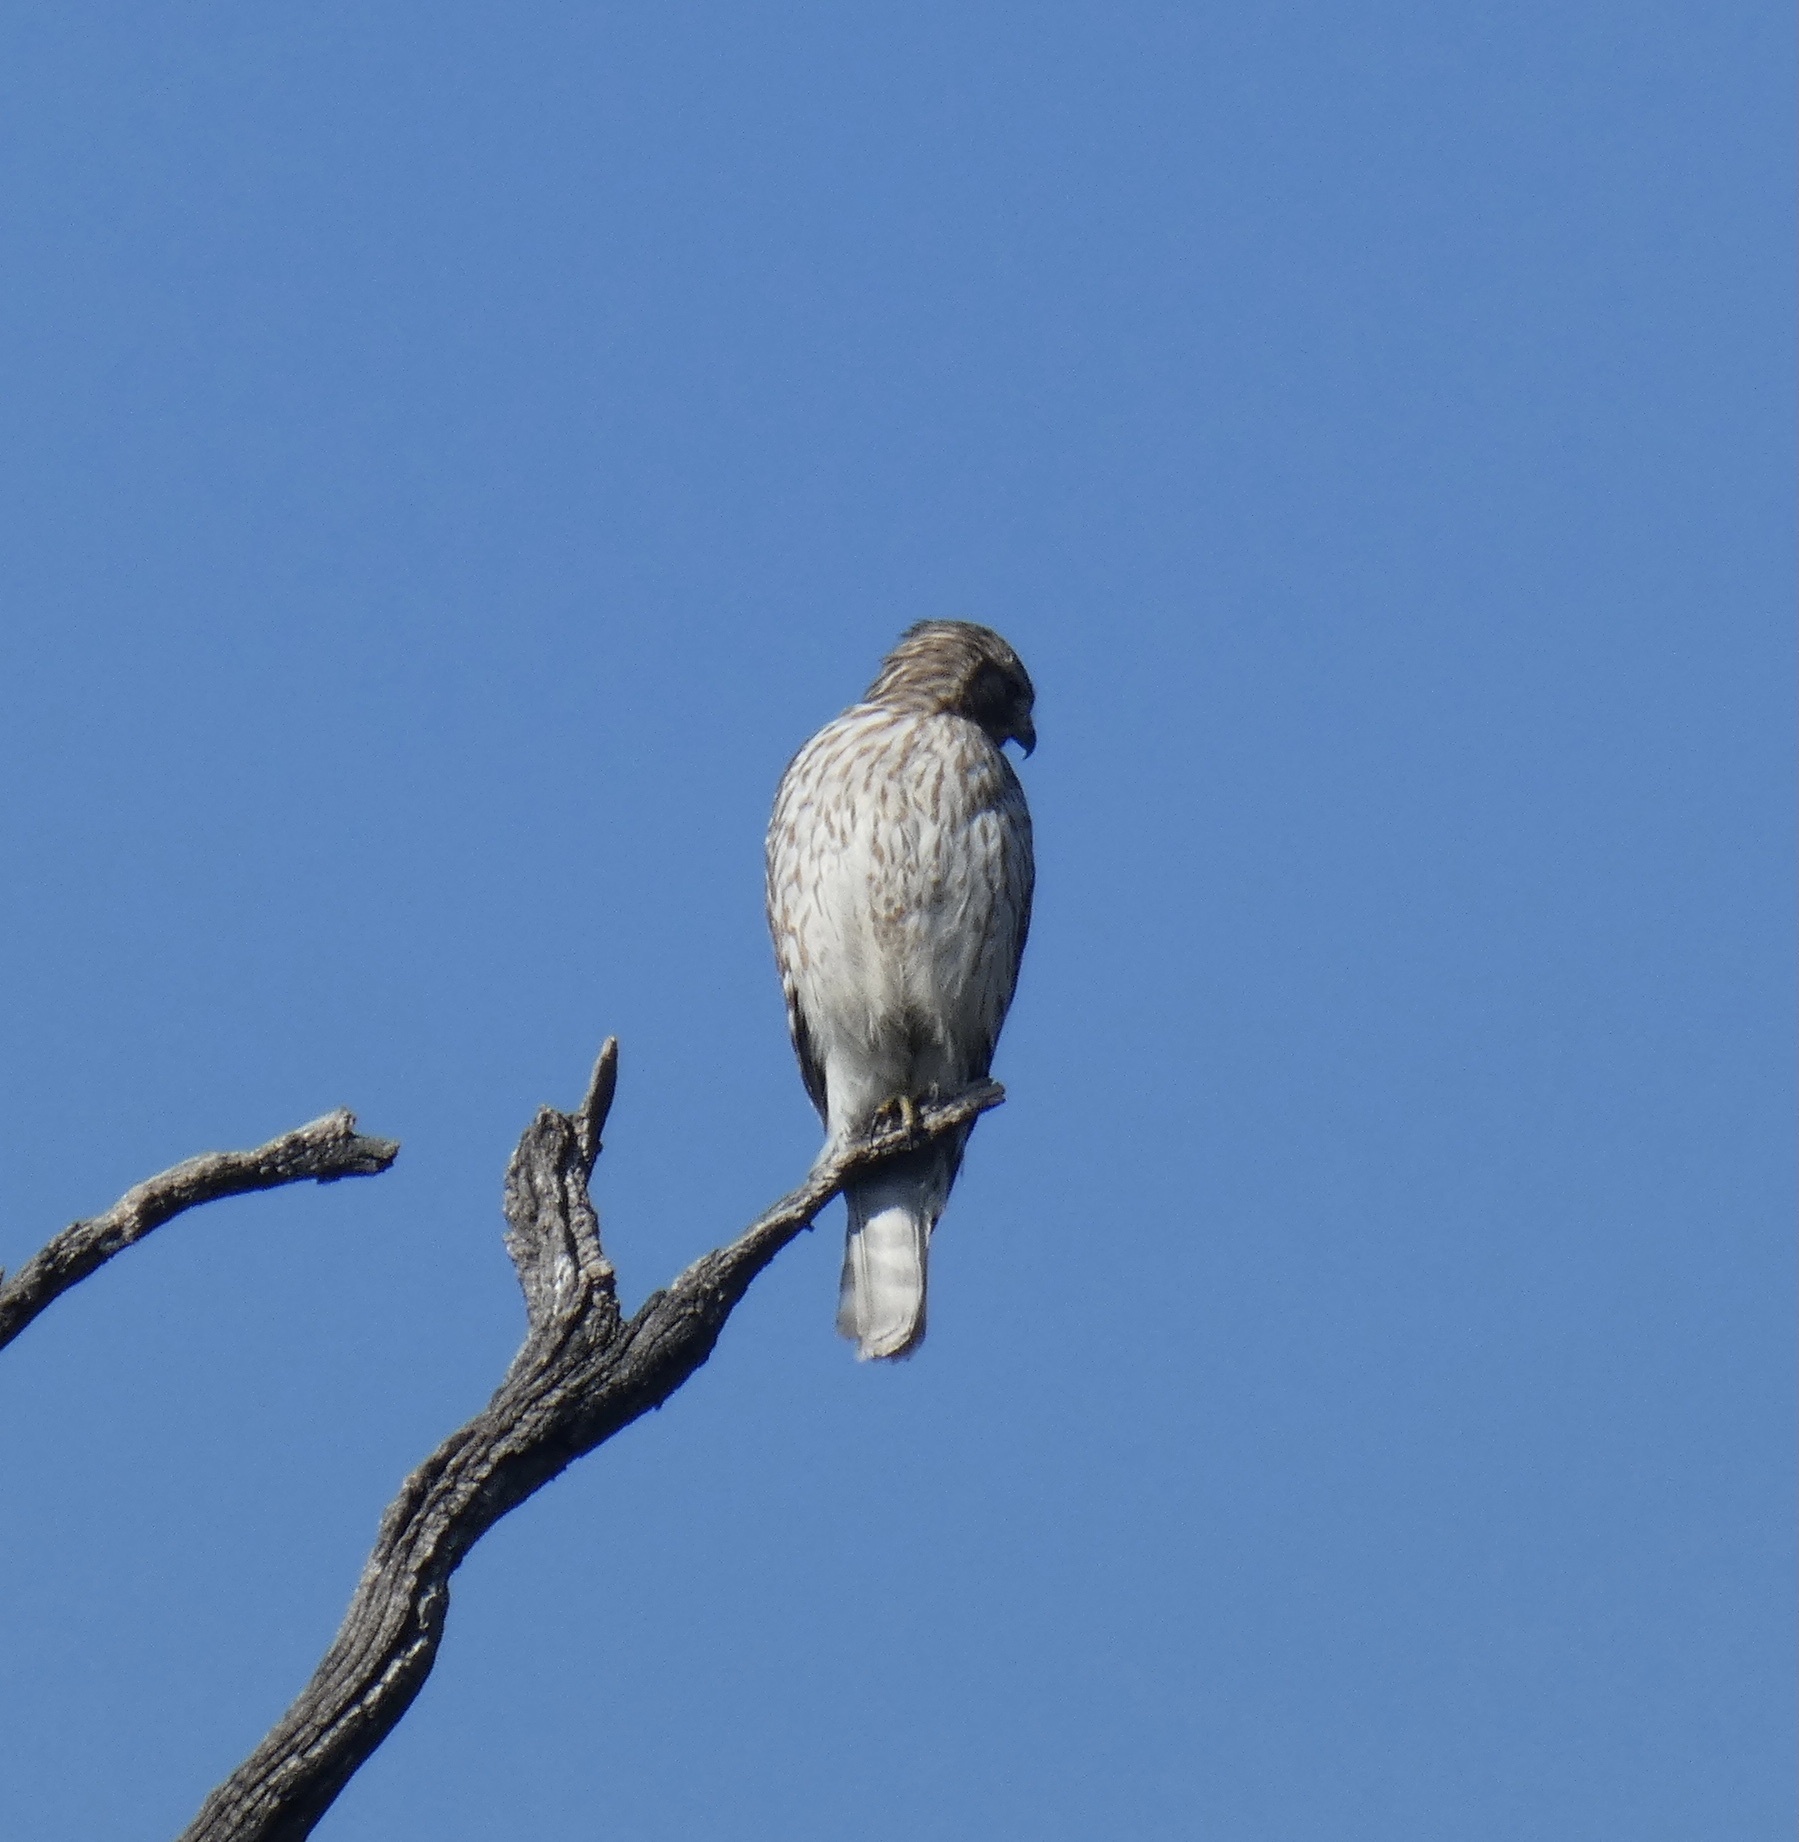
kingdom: Animalia
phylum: Chordata
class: Aves
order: Accipitriformes
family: Accipitridae
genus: Buteo
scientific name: Buteo lineatus
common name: Red-shouldered hawk
